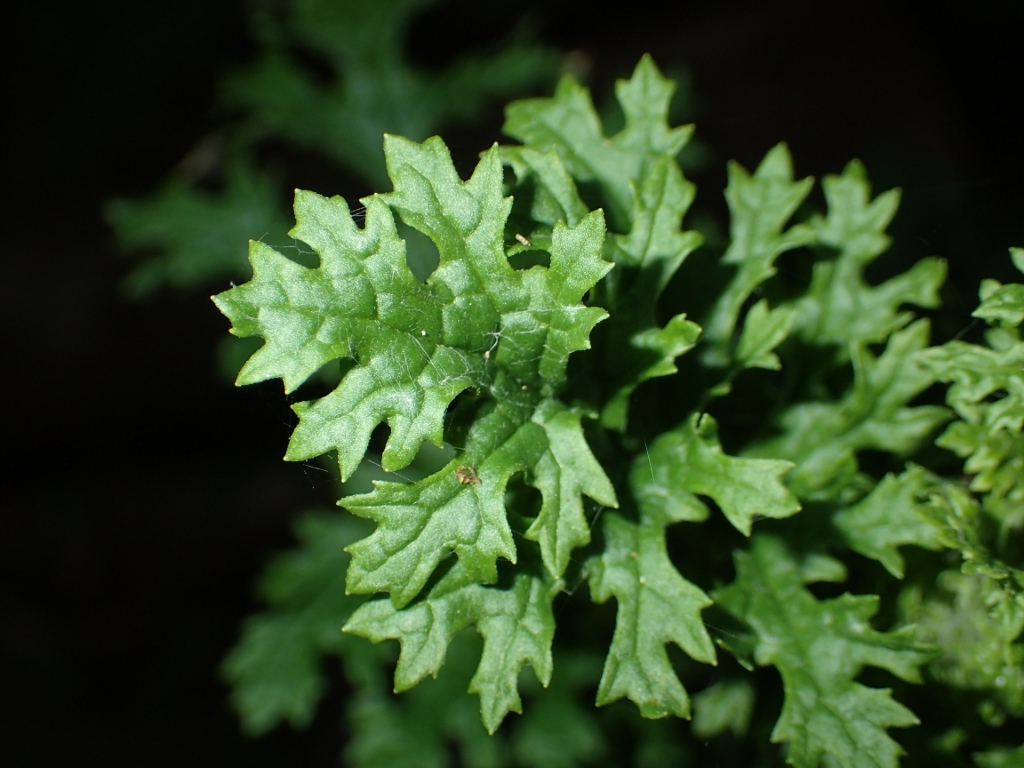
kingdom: Plantae
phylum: Tracheophyta
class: Magnoliopsida
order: Asterales
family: Asteraceae
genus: Jacobaea
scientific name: Jacobaea vulgaris
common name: Stinking willie
